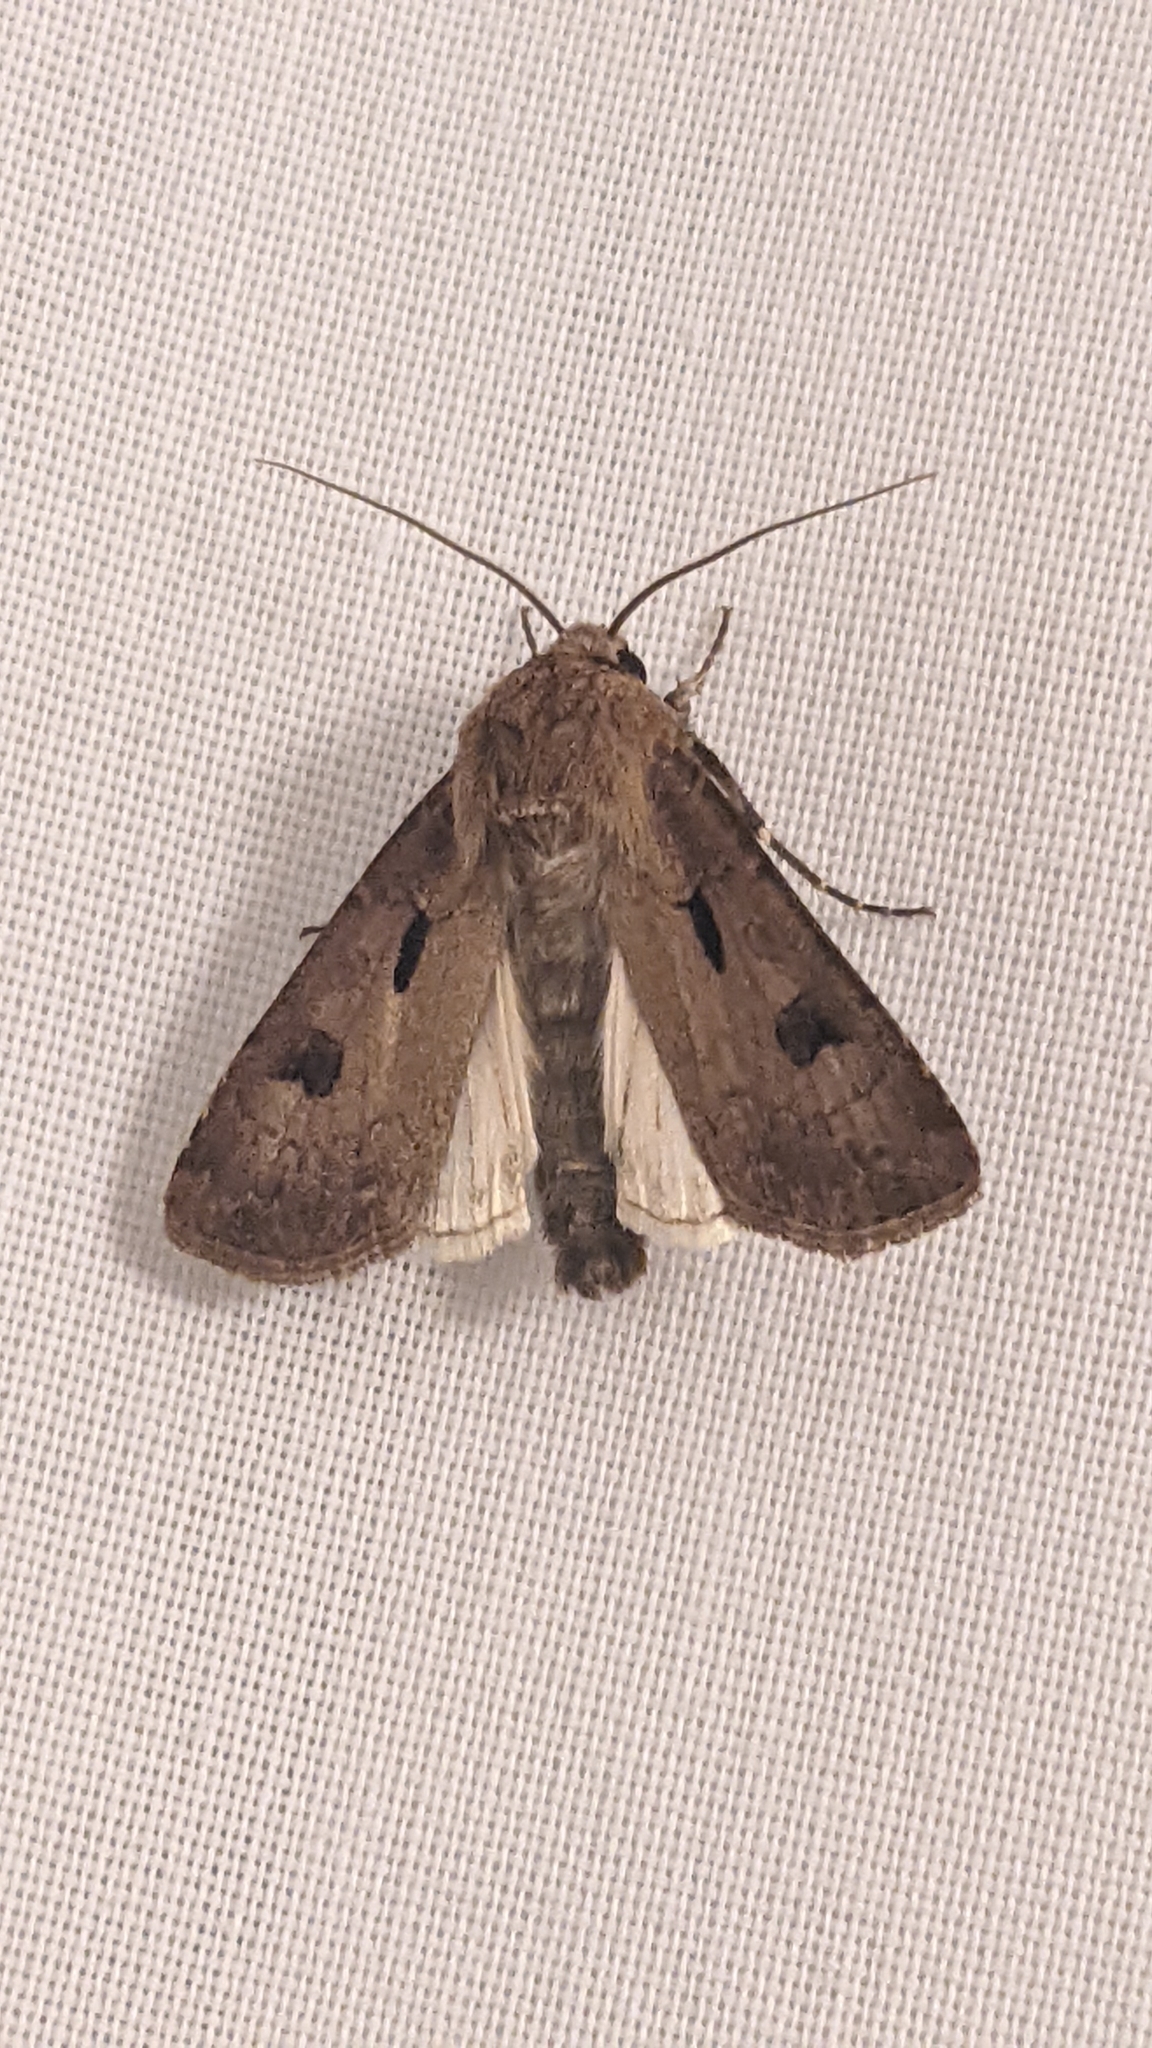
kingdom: Animalia
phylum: Arthropoda
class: Insecta
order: Lepidoptera
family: Noctuidae
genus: Agrotis
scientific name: Agrotis exclamationis
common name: Heart and dart
